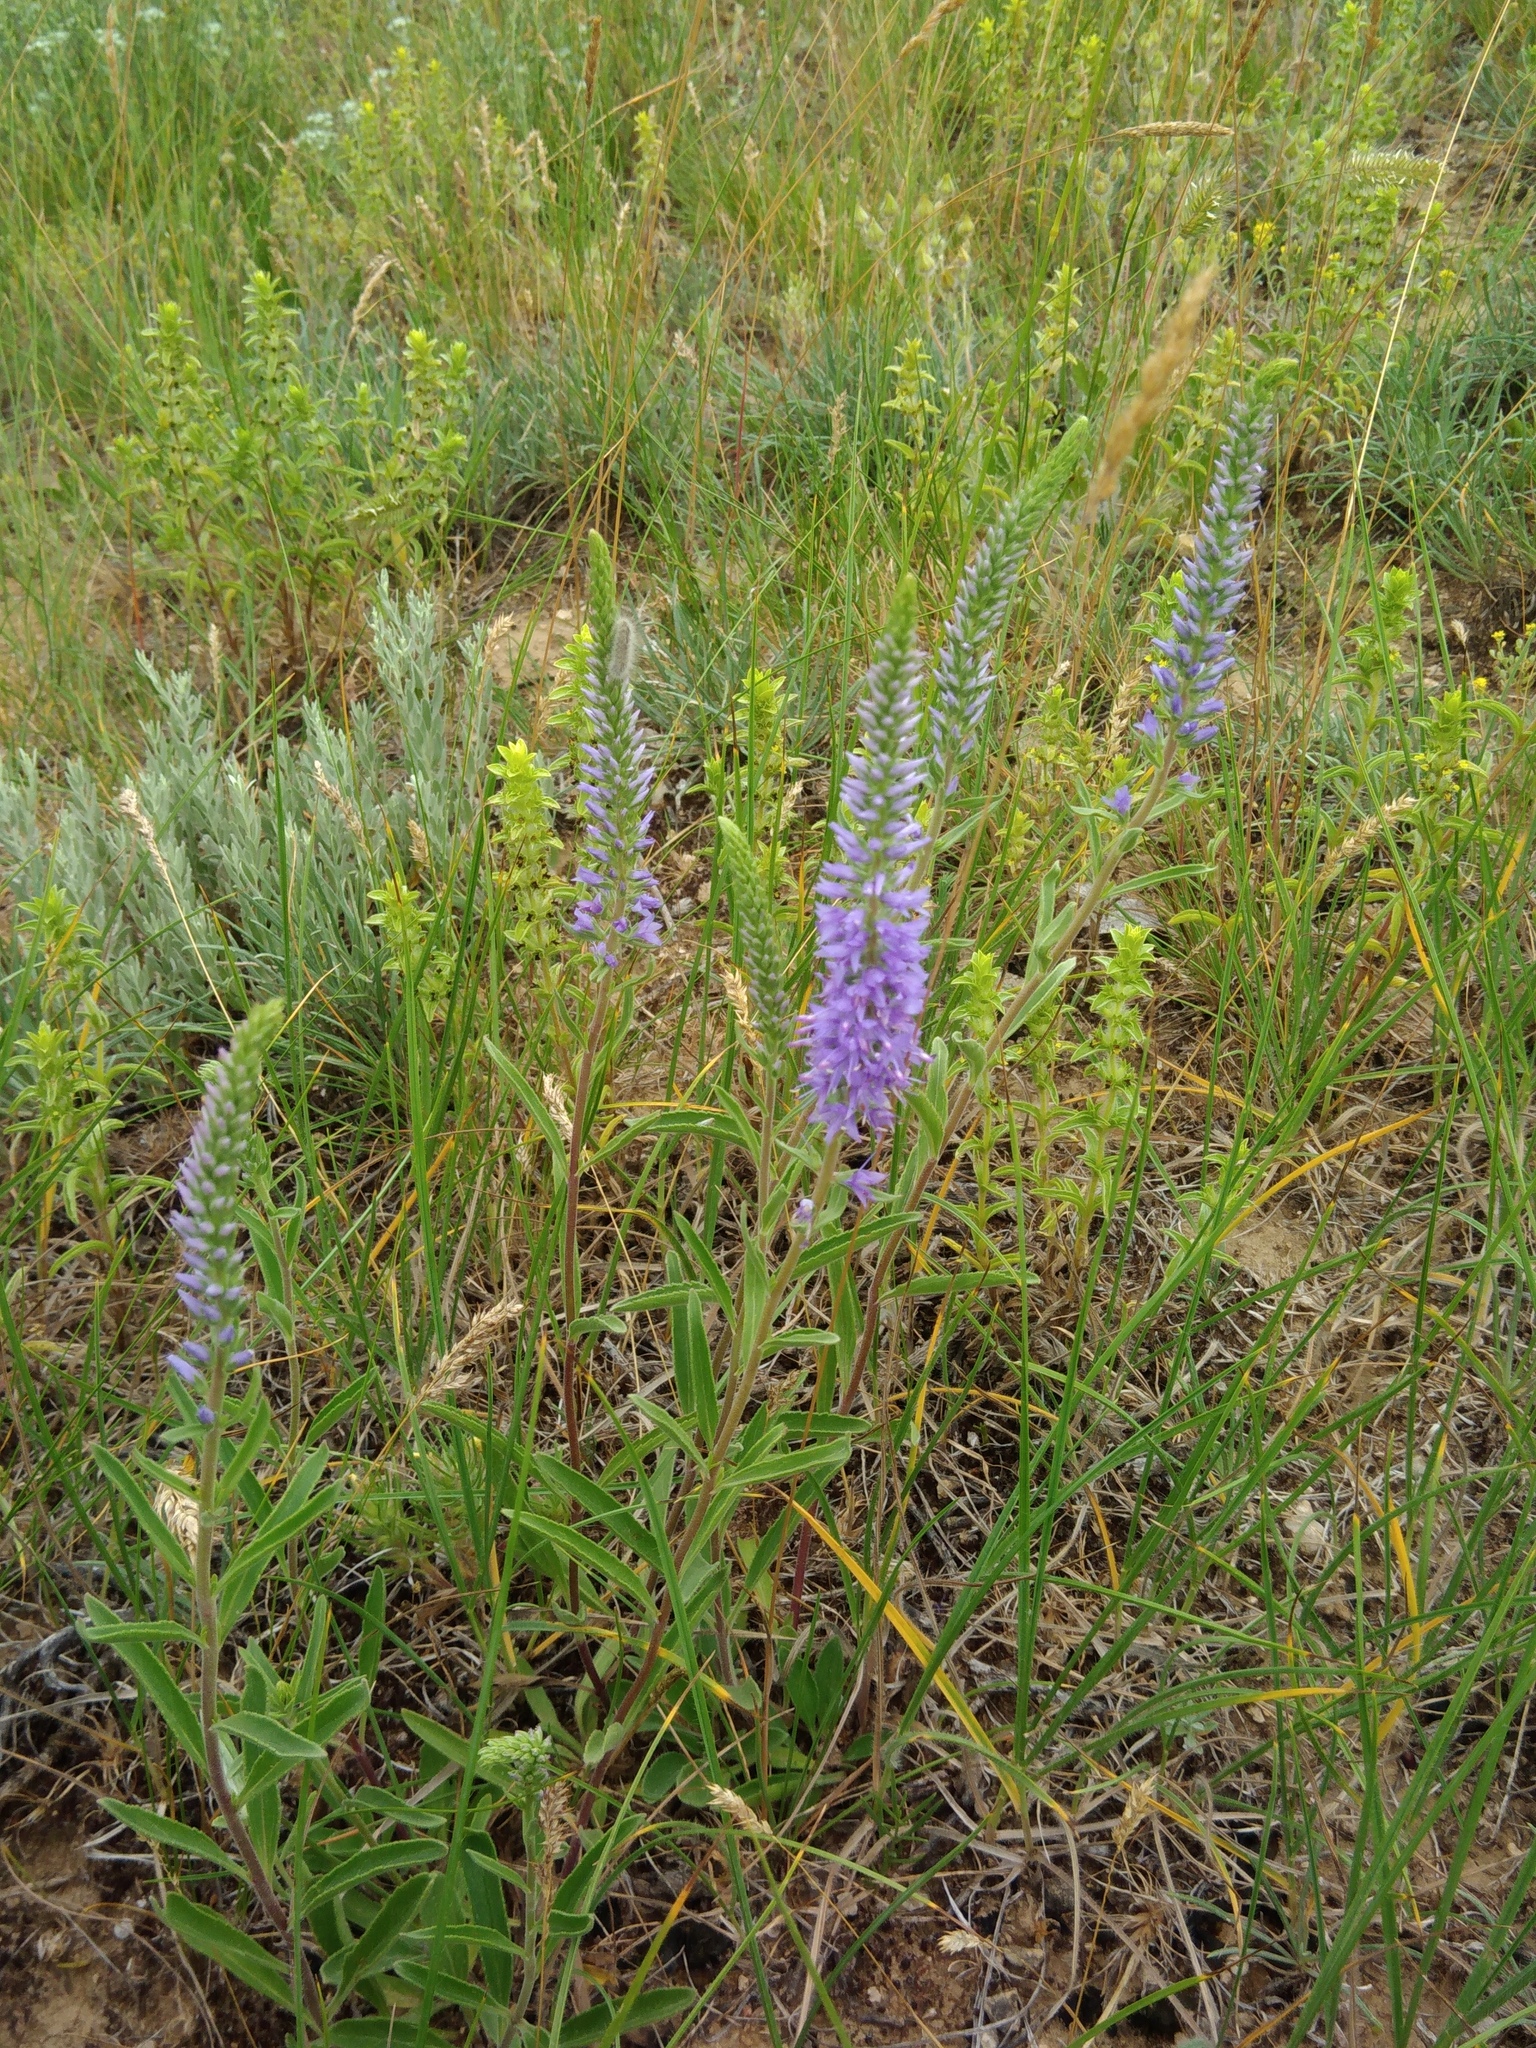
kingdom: Plantae
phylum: Tracheophyta
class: Magnoliopsida
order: Lamiales
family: Plantaginaceae
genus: Veronica
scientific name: Veronica barrelieri
